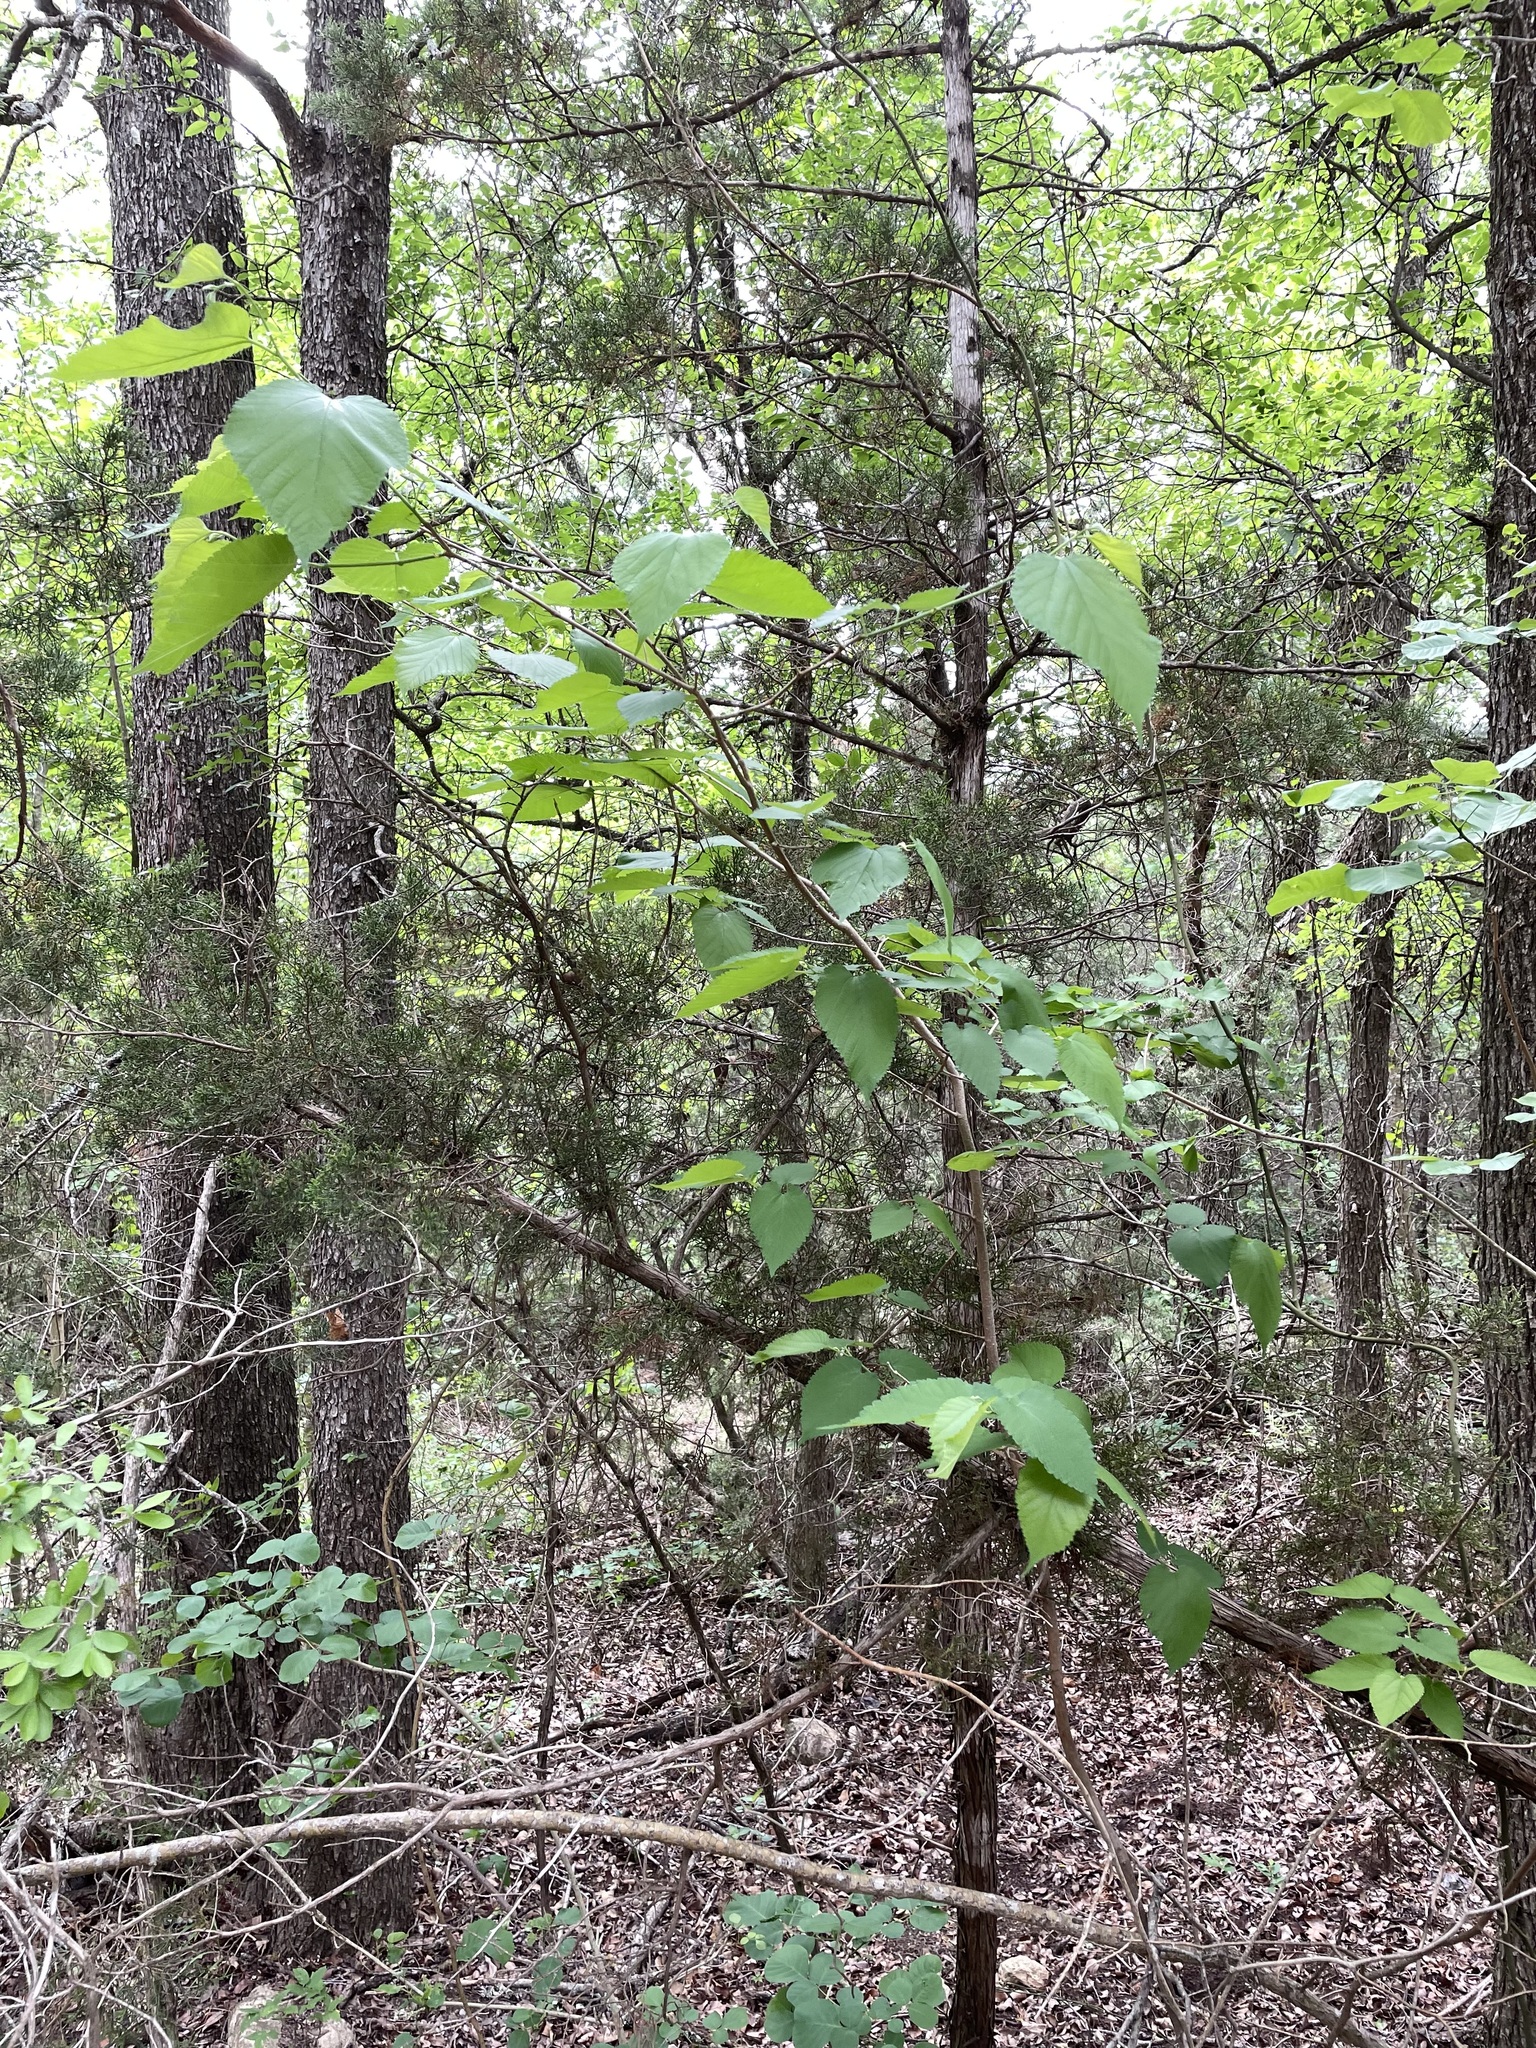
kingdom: Plantae
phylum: Tracheophyta
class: Magnoliopsida
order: Rosales
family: Moraceae
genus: Morus
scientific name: Morus rubra
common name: Red mulberry
